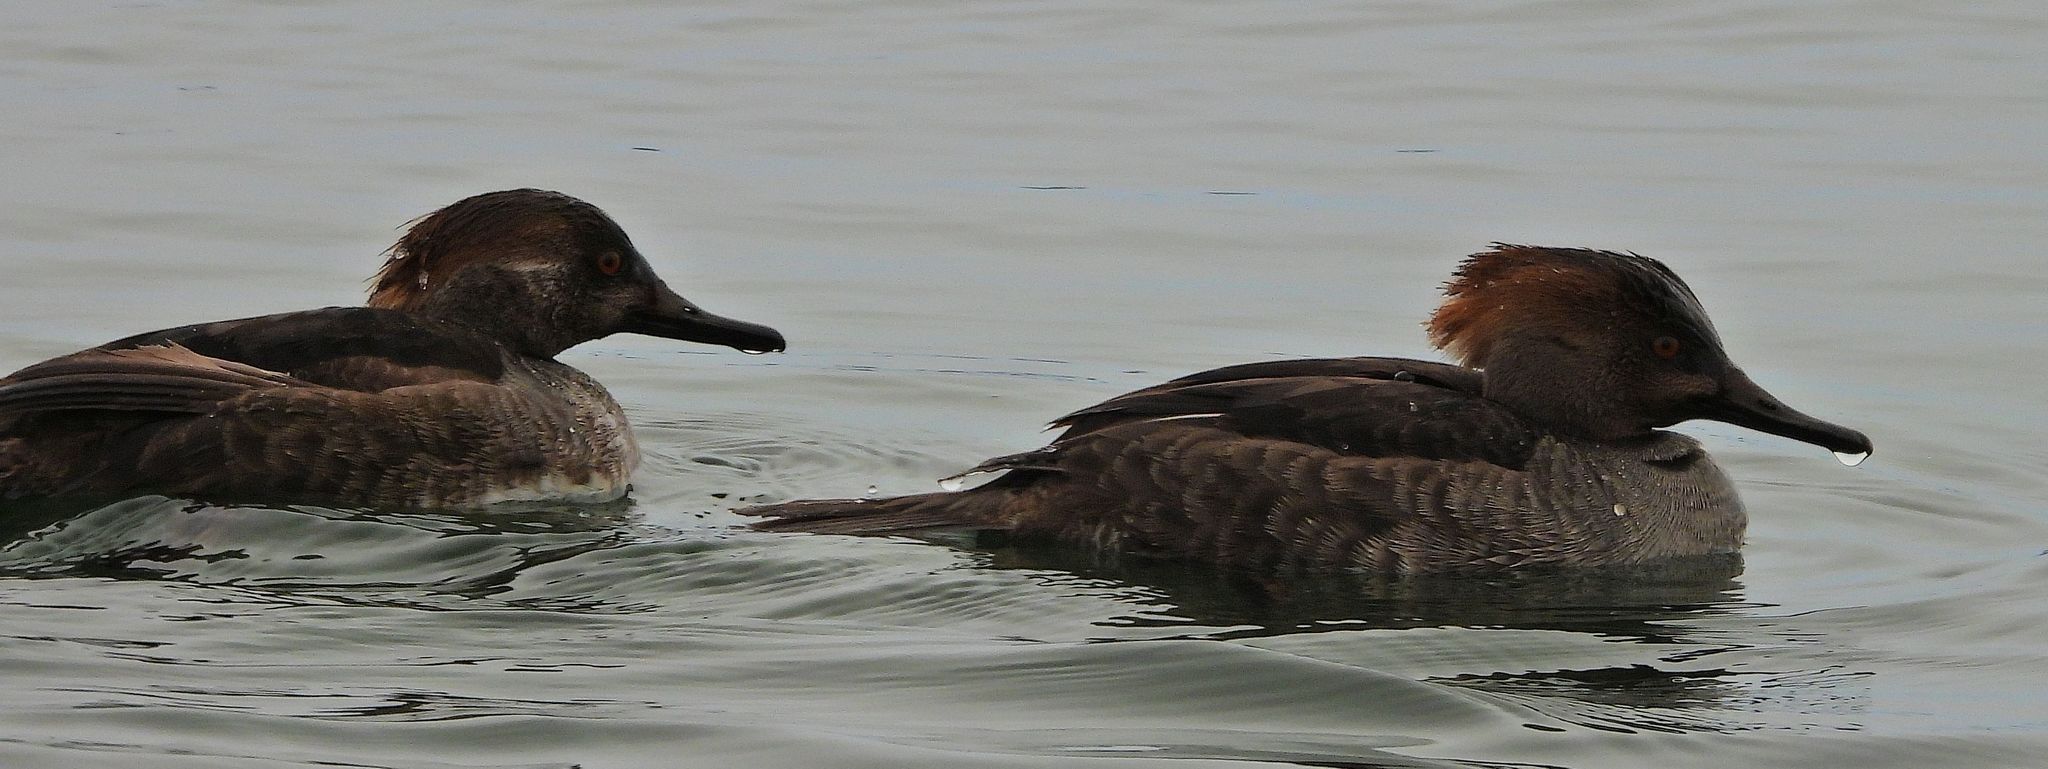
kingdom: Animalia
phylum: Chordata
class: Aves
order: Anseriformes
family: Anatidae
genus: Lophodytes
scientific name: Lophodytes cucullatus
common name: Hooded merganser
